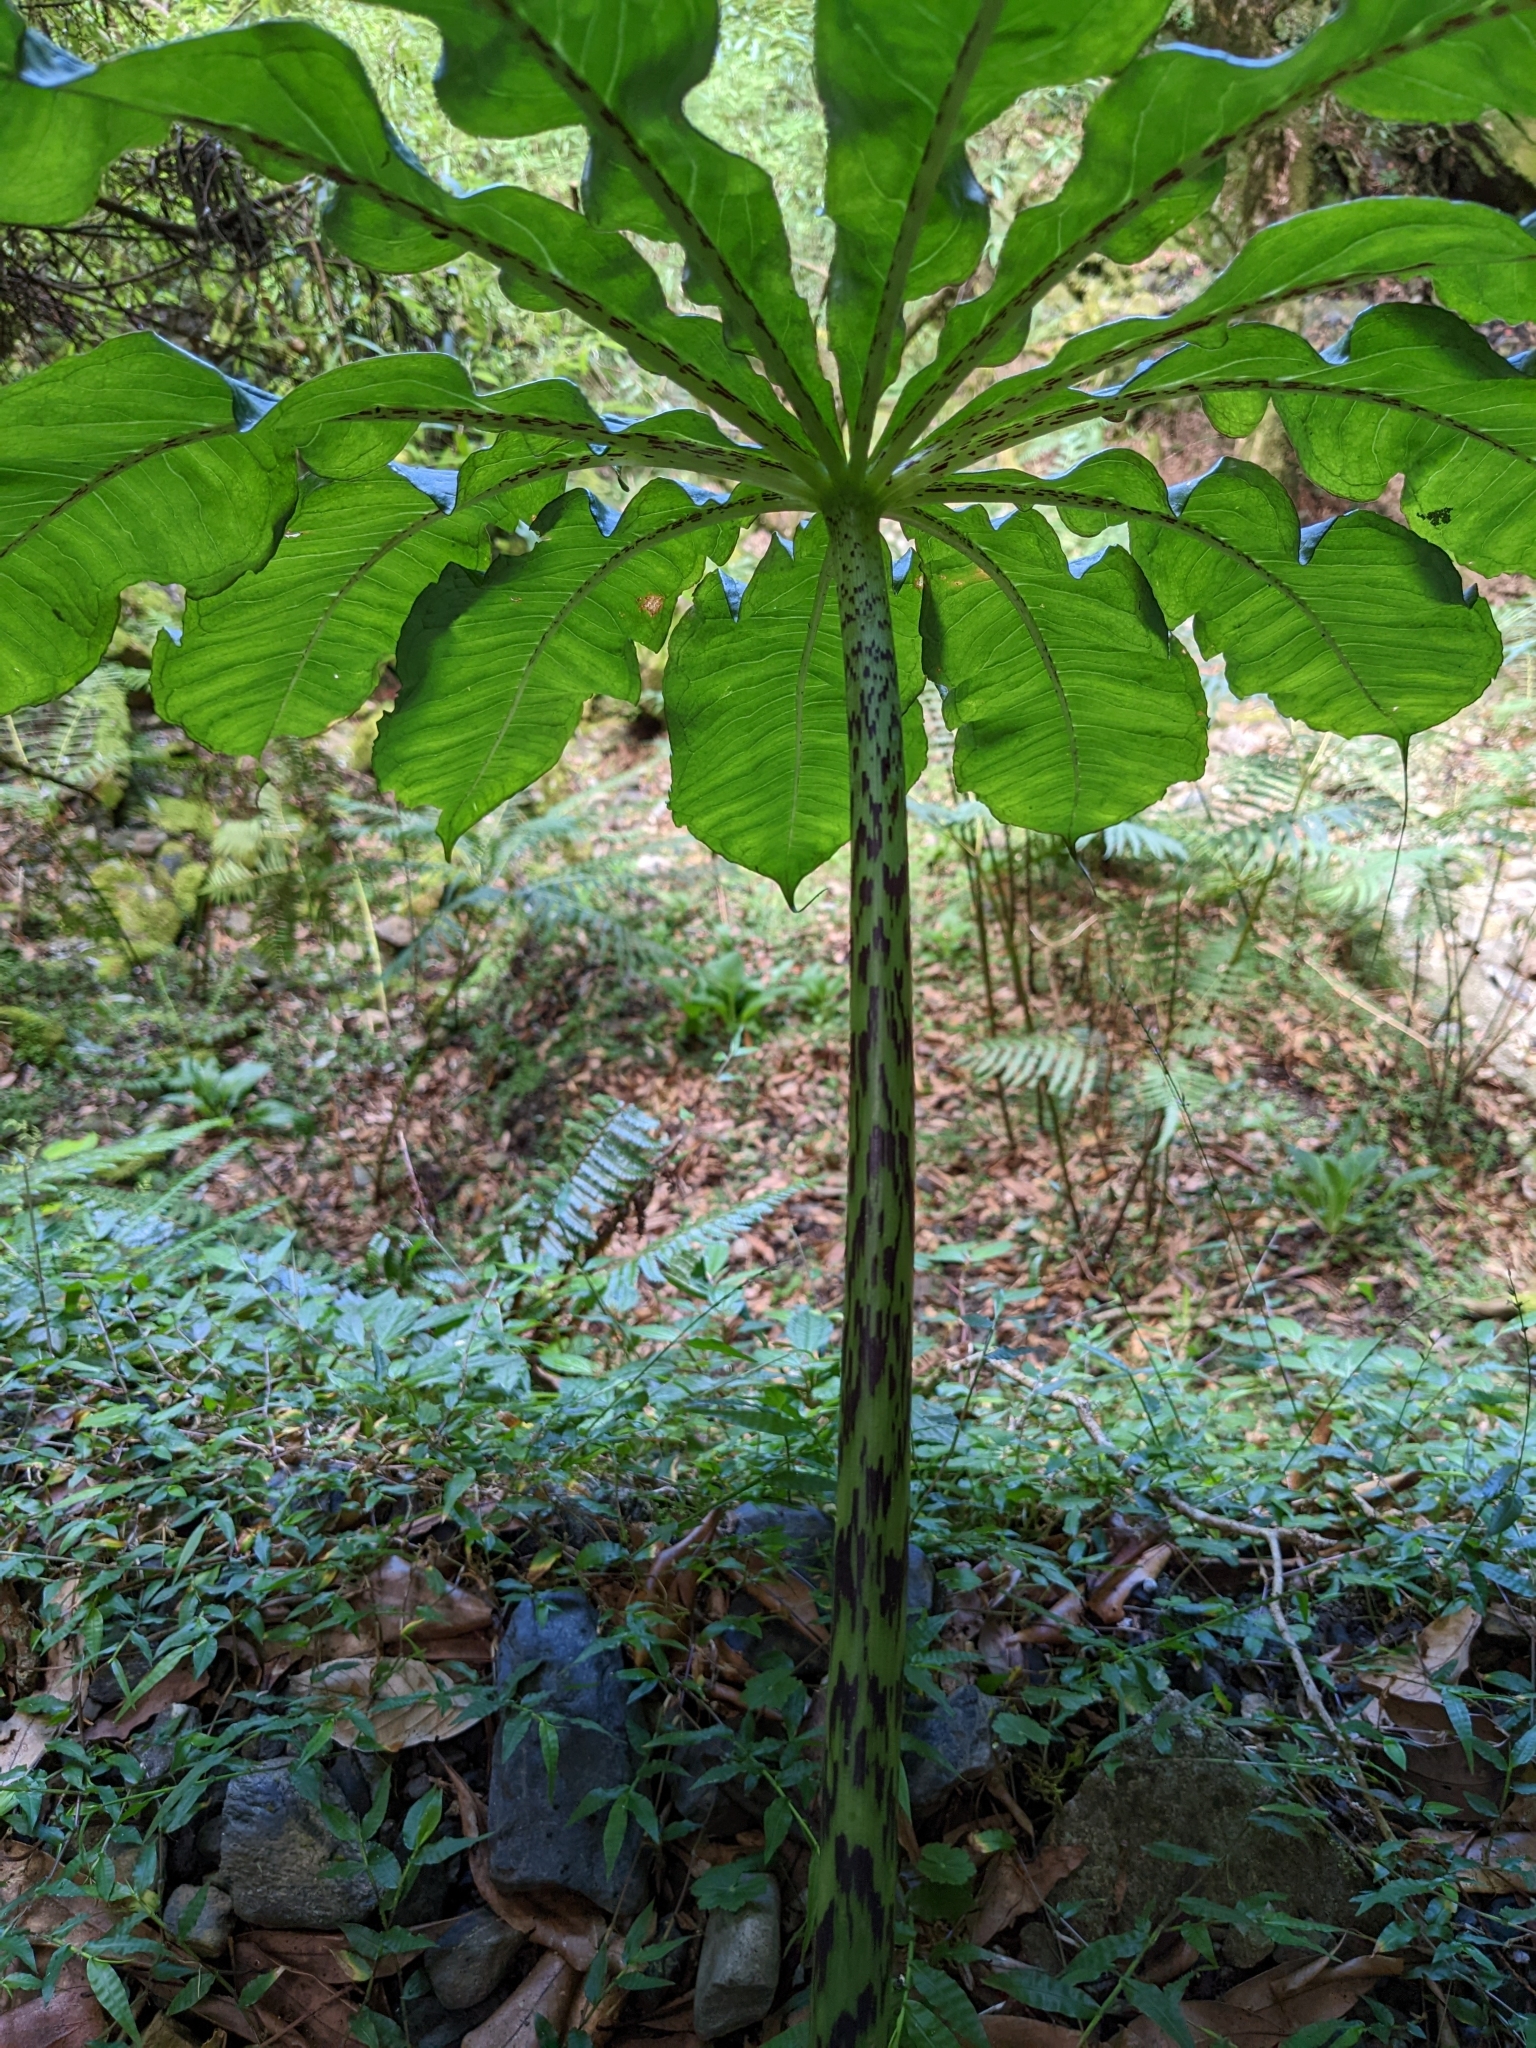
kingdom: Plantae
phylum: Tracheophyta
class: Liliopsida
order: Alismatales
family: Araceae
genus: Arisaema
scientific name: Arisaema taiwanense
